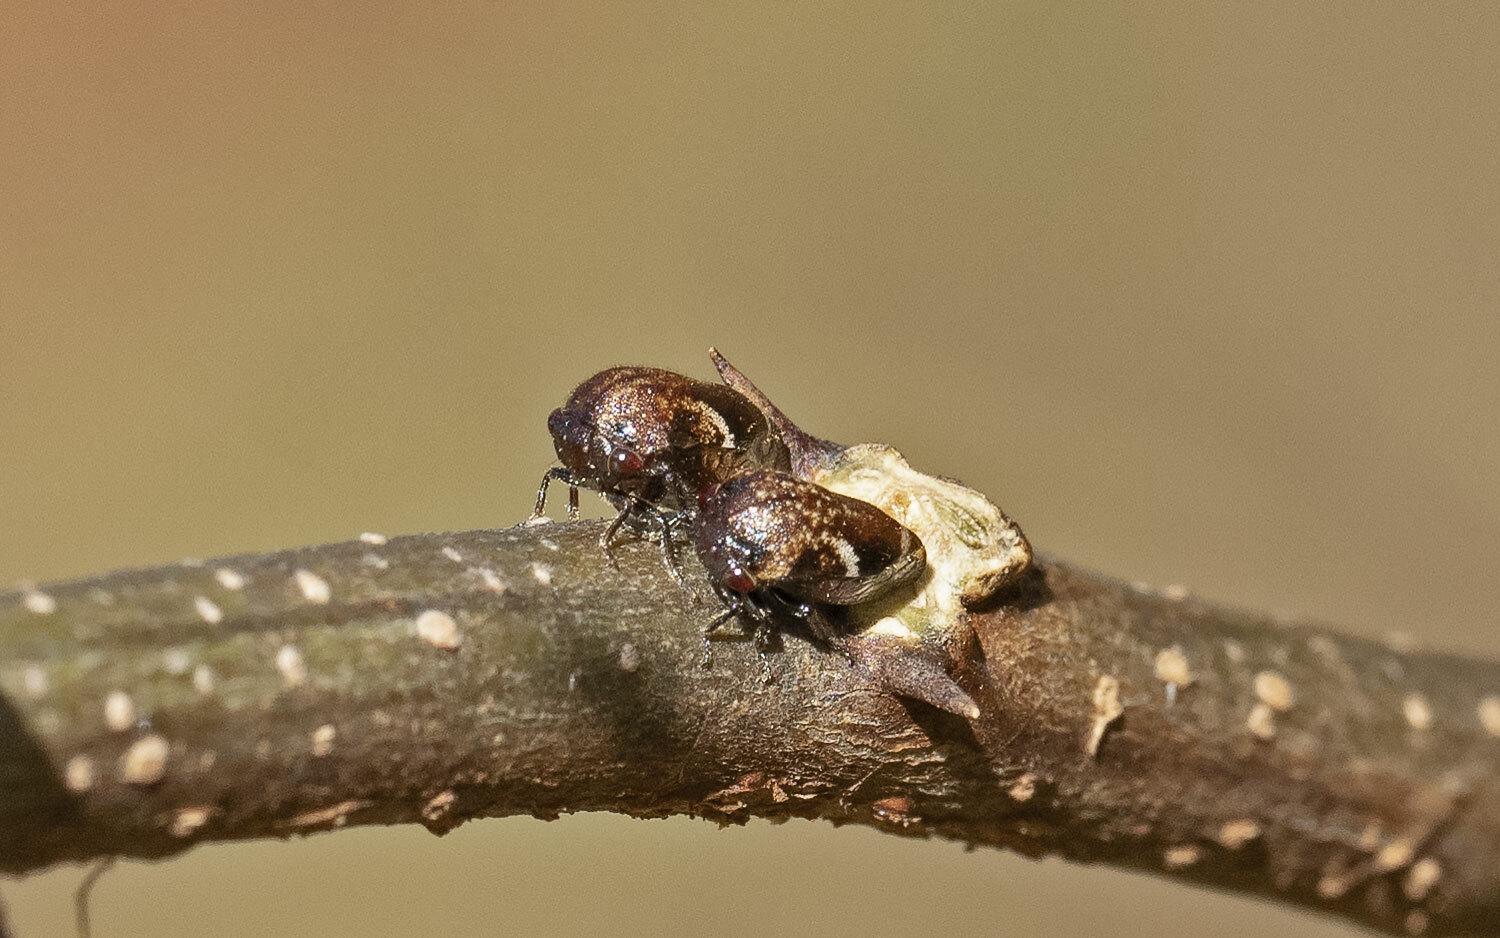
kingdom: Animalia
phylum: Arthropoda
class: Insecta
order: Hemiptera
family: Membracidae
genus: Vanduzea
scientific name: Vanduzea arquata
